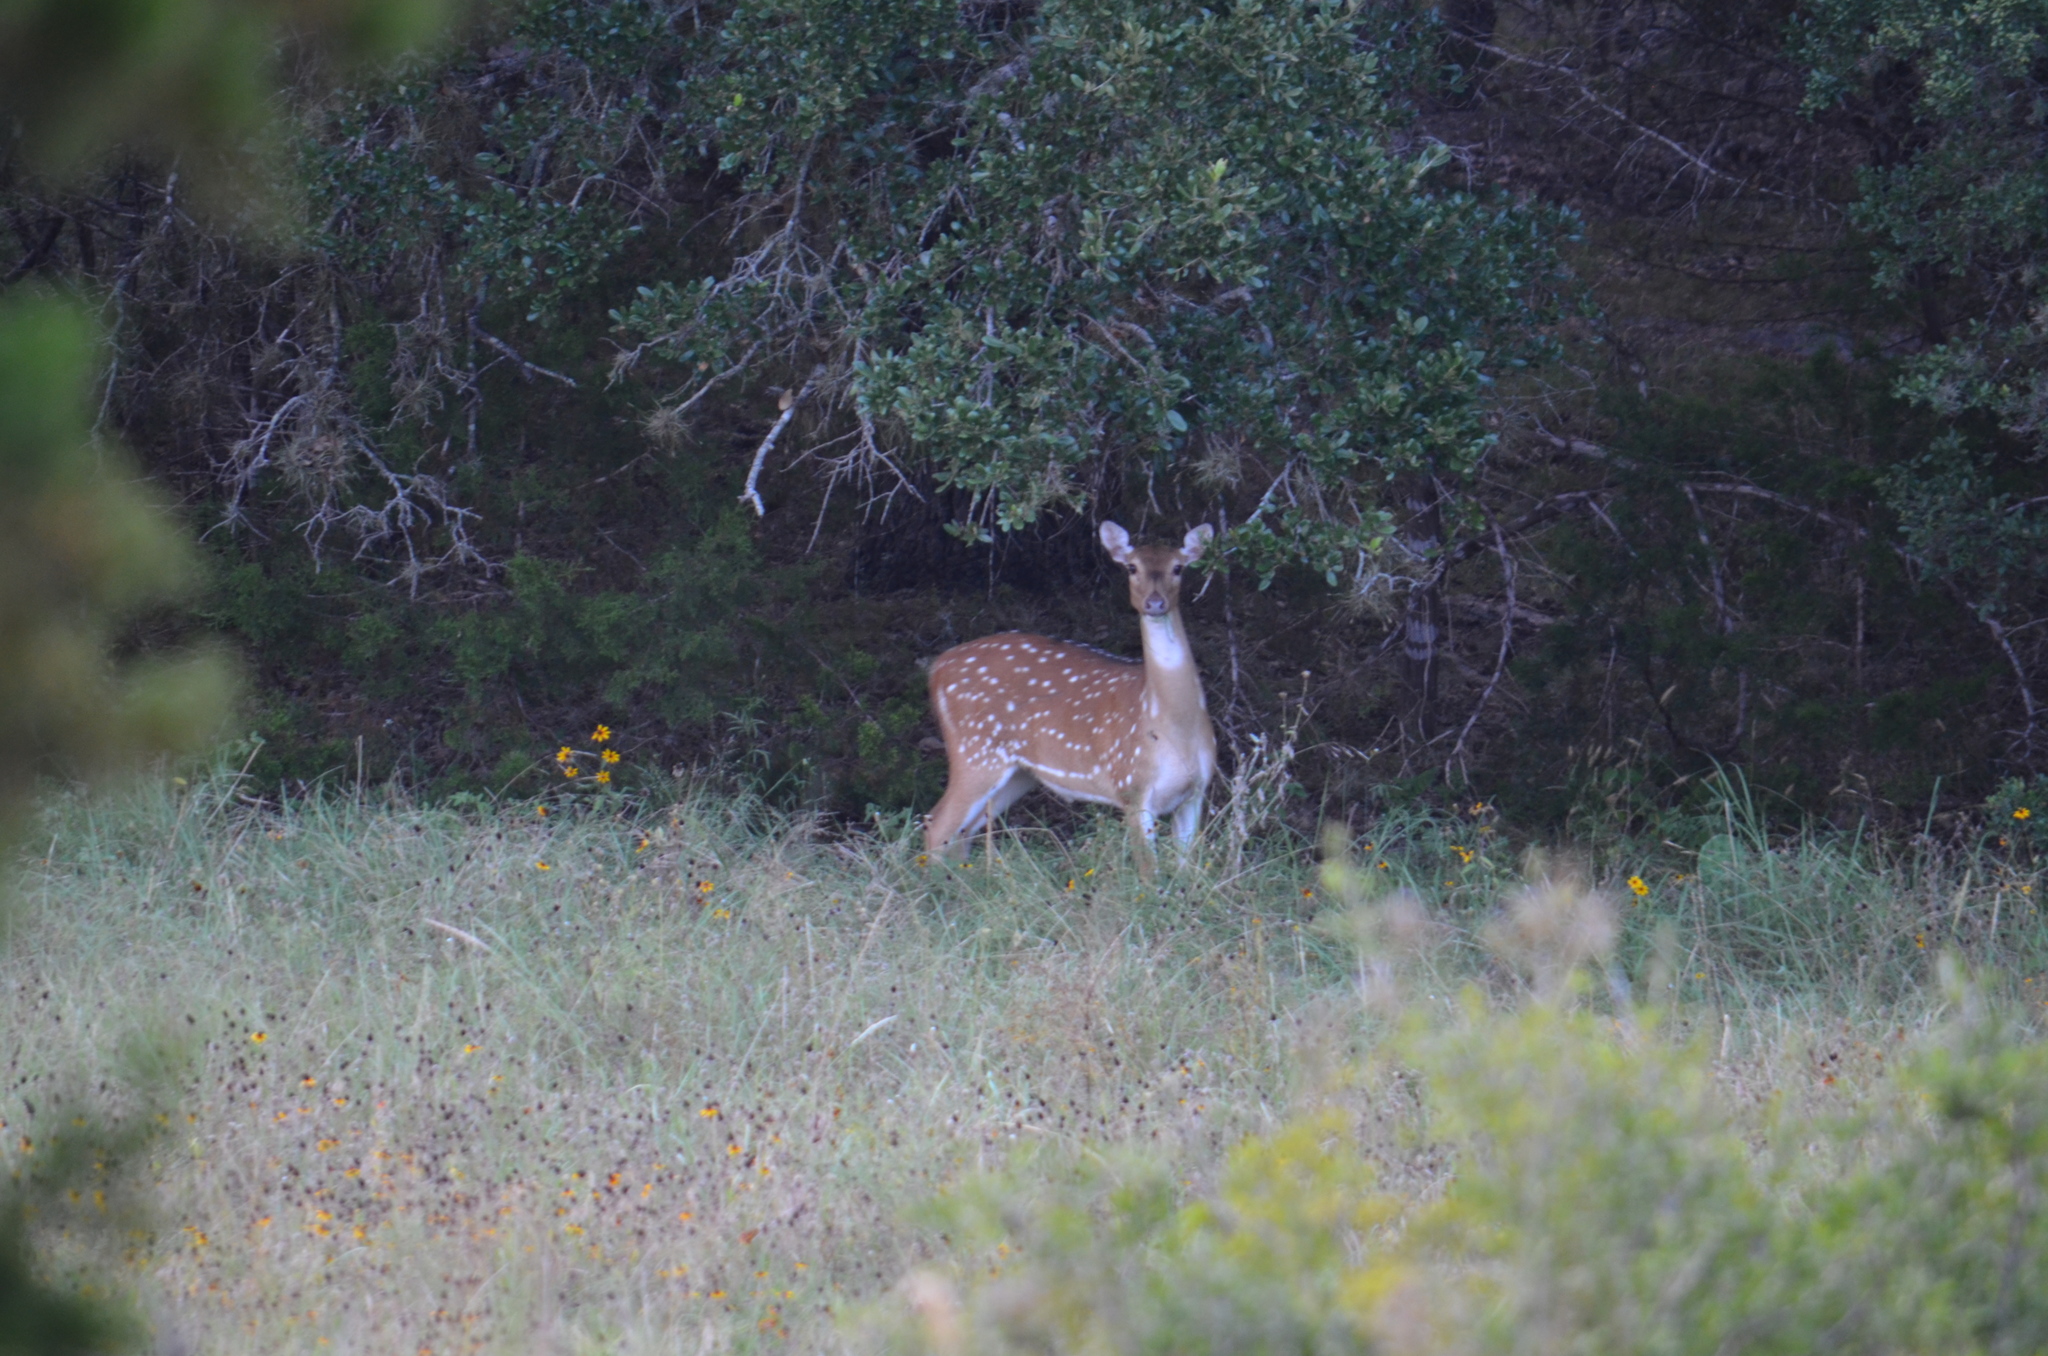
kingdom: Animalia
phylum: Chordata
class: Mammalia
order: Artiodactyla
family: Cervidae
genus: Axis
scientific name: Axis axis
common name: Chital
